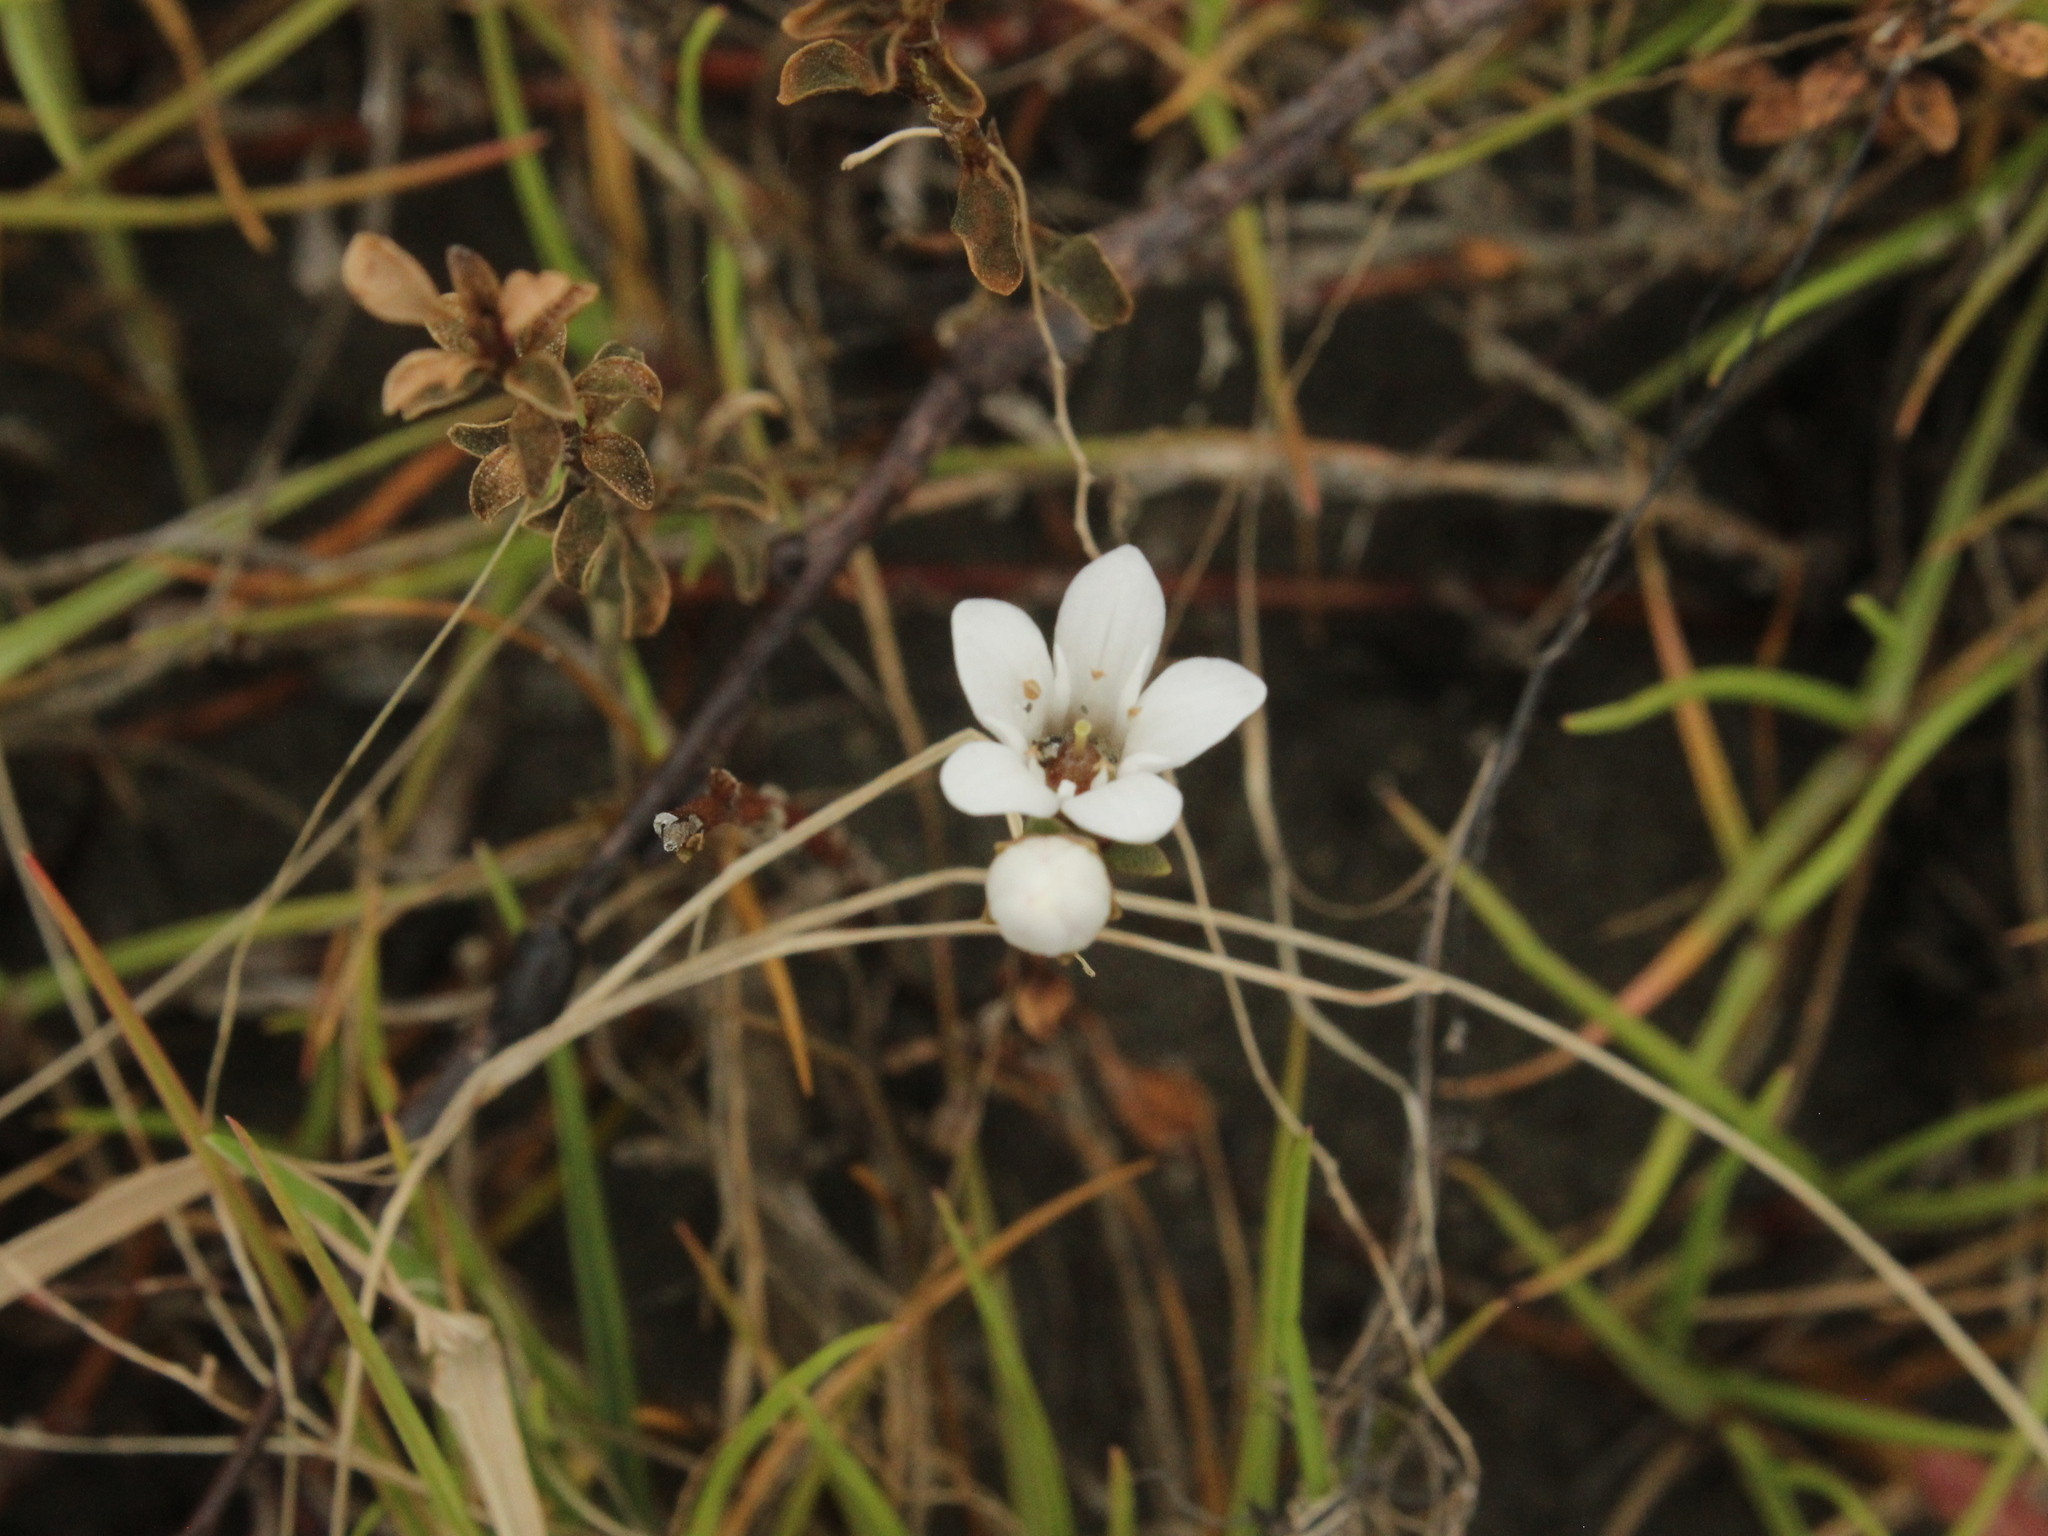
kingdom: Plantae
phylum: Tracheophyta
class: Magnoliopsida
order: Ericales
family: Primulaceae
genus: Samolus
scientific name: Samolus repens
